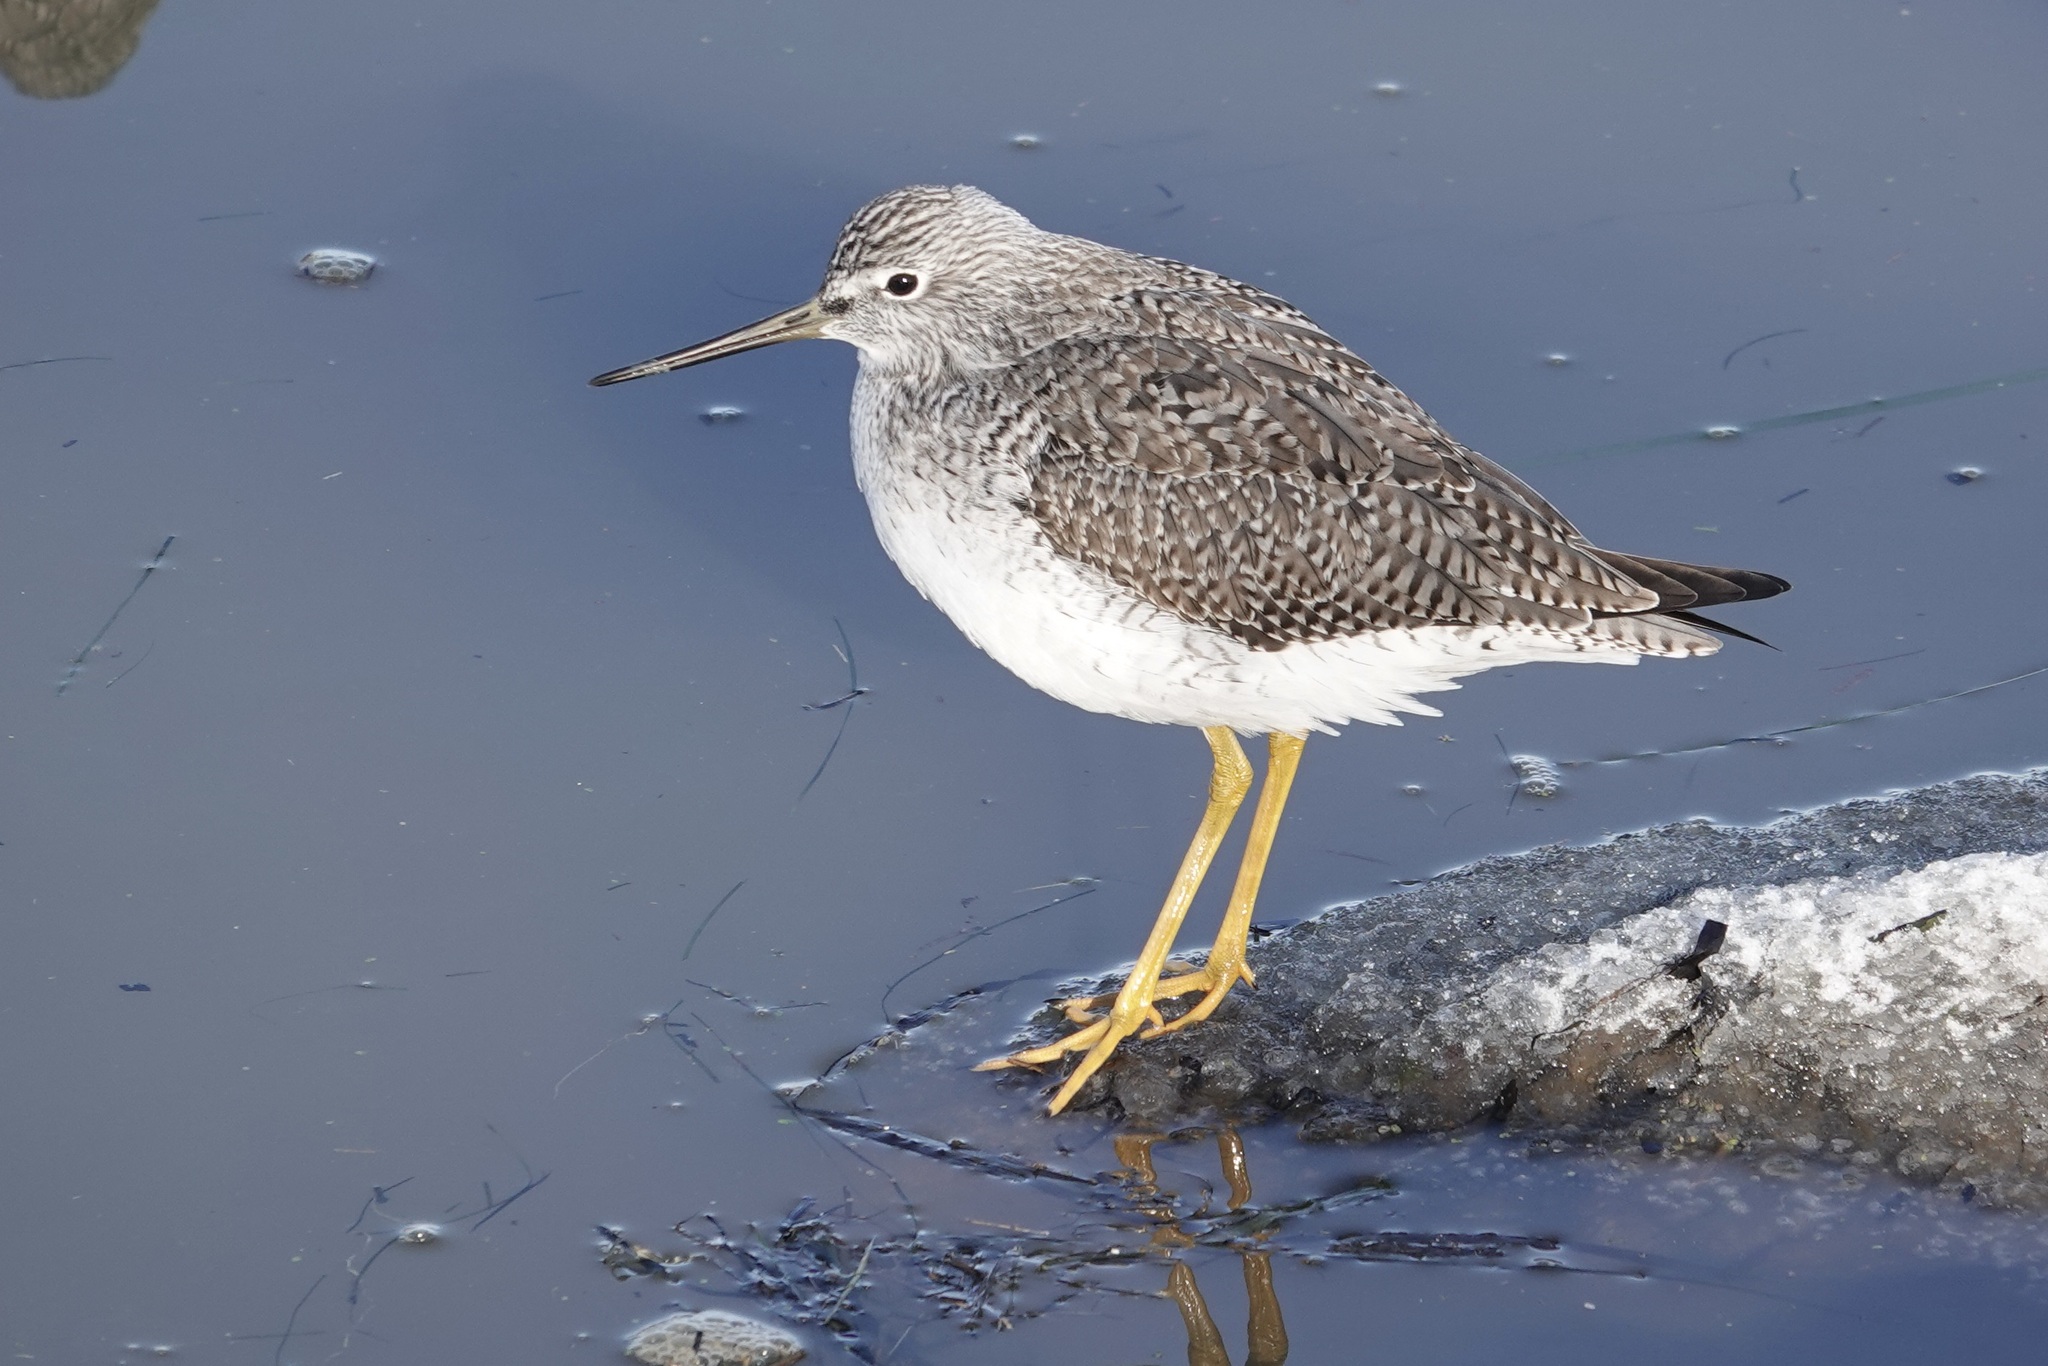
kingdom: Animalia
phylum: Chordata
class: Aves
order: Charadriiformes
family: Scolopacidae
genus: Tringa
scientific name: Tringa melanoleuca
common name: Greater yellowlegs
